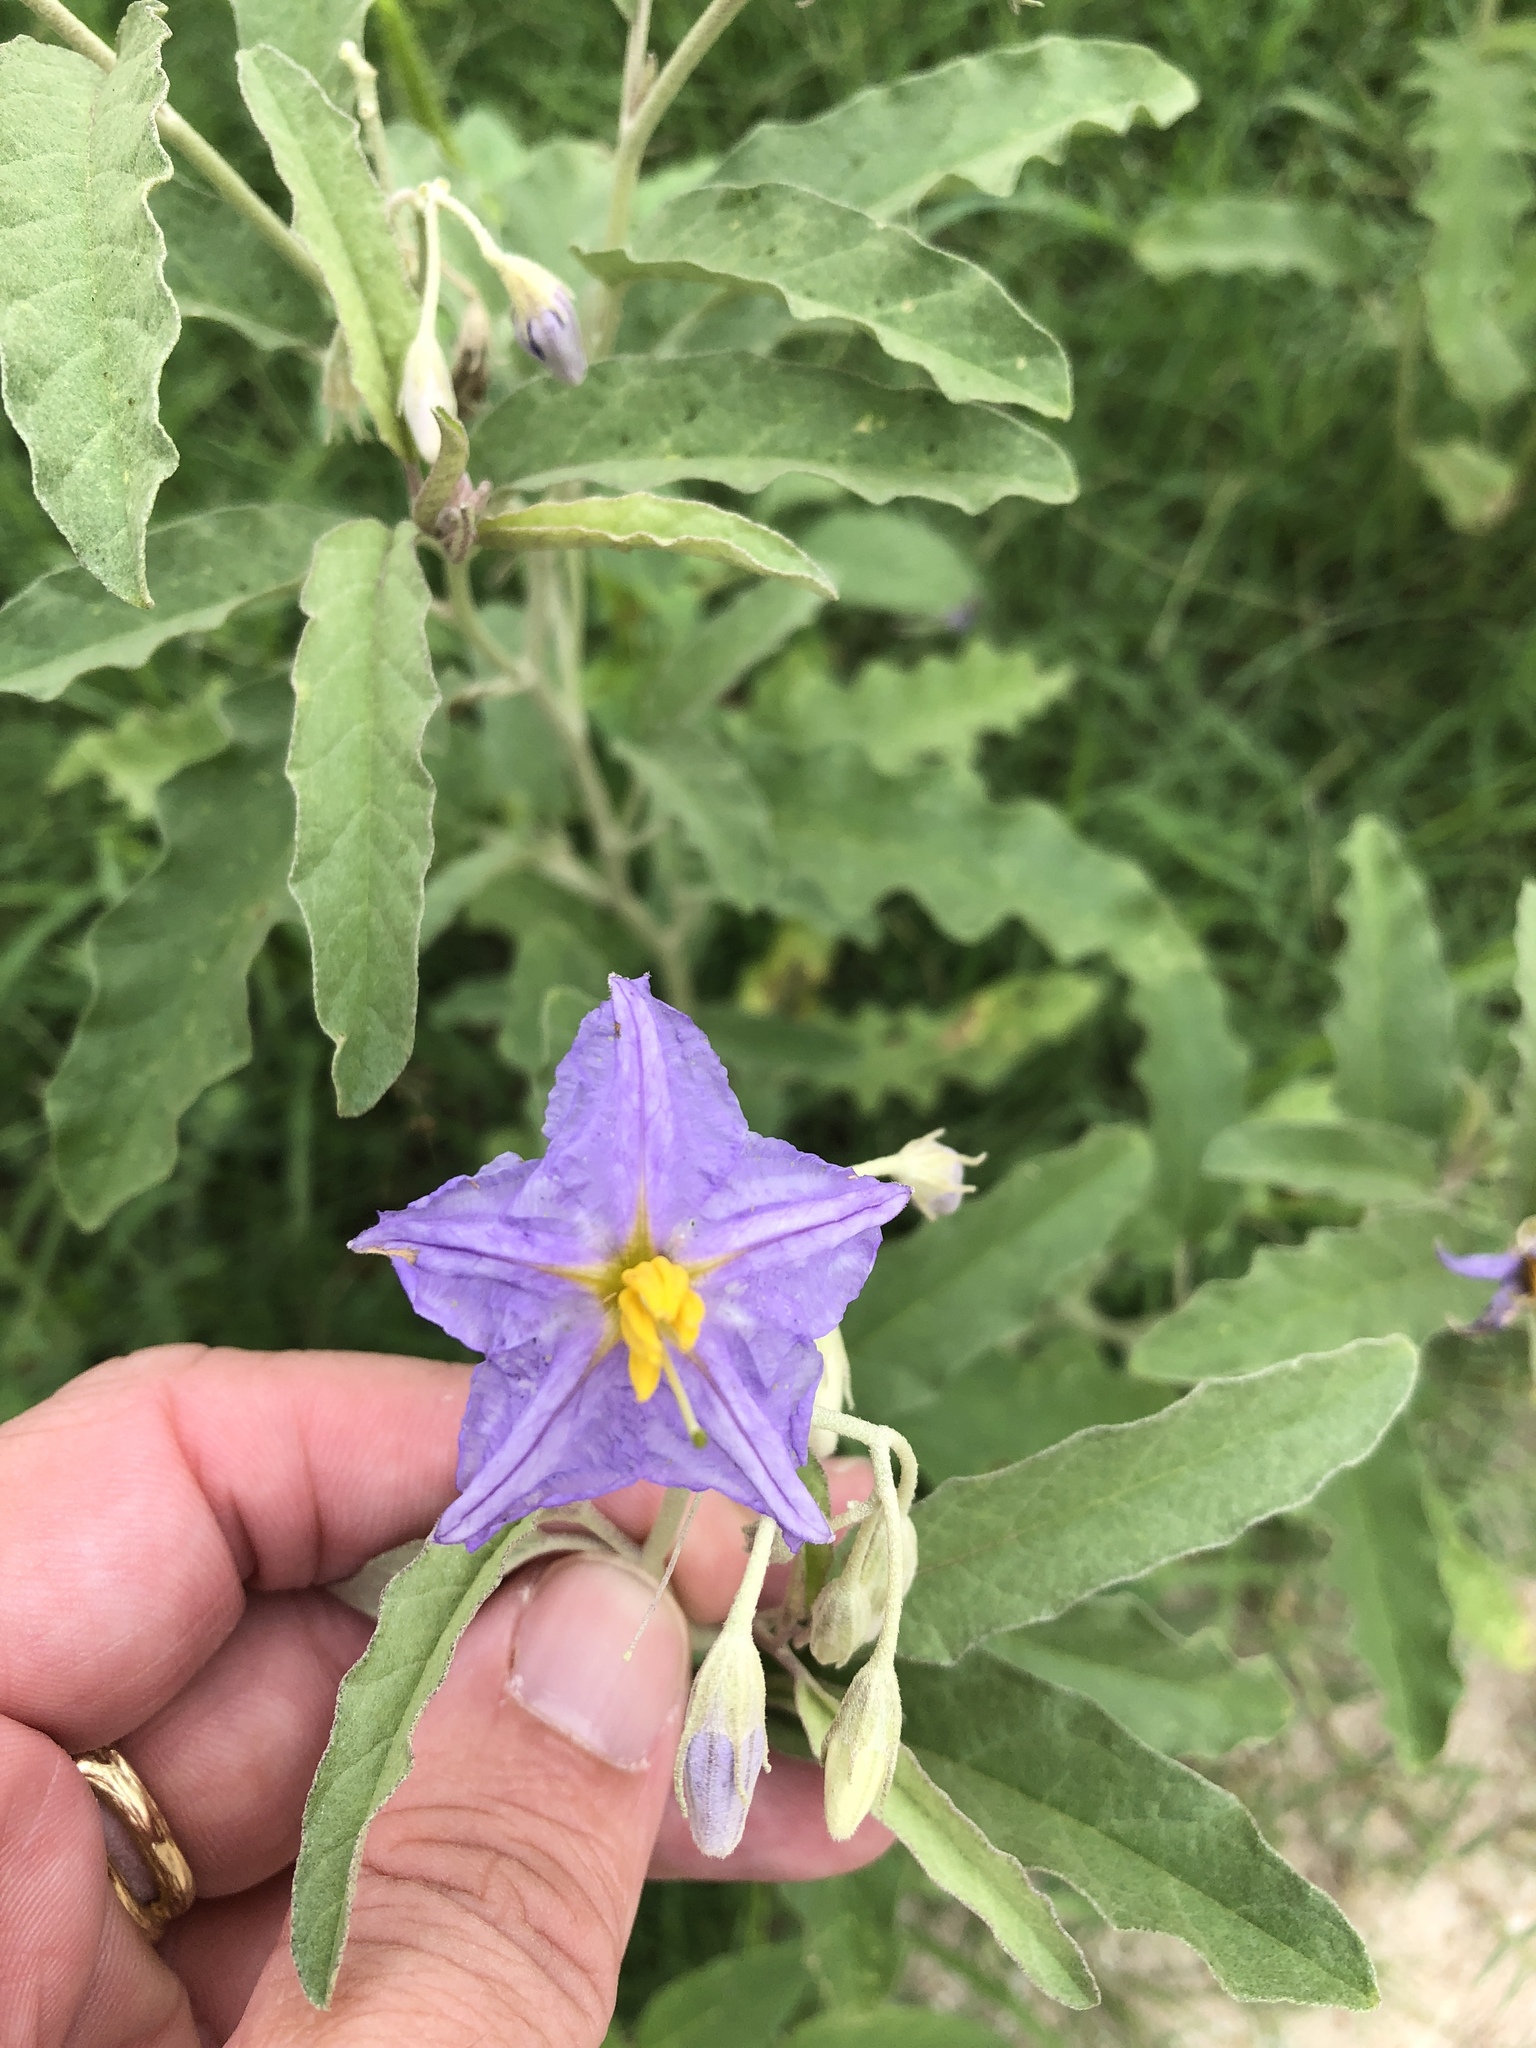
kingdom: Plantae
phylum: Tracheophyta
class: Magnoliopsida
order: Solanales
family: Solanaceae
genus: Solanum
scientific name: Solanum elaeagnifolium
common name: Silverleaf nightshade
